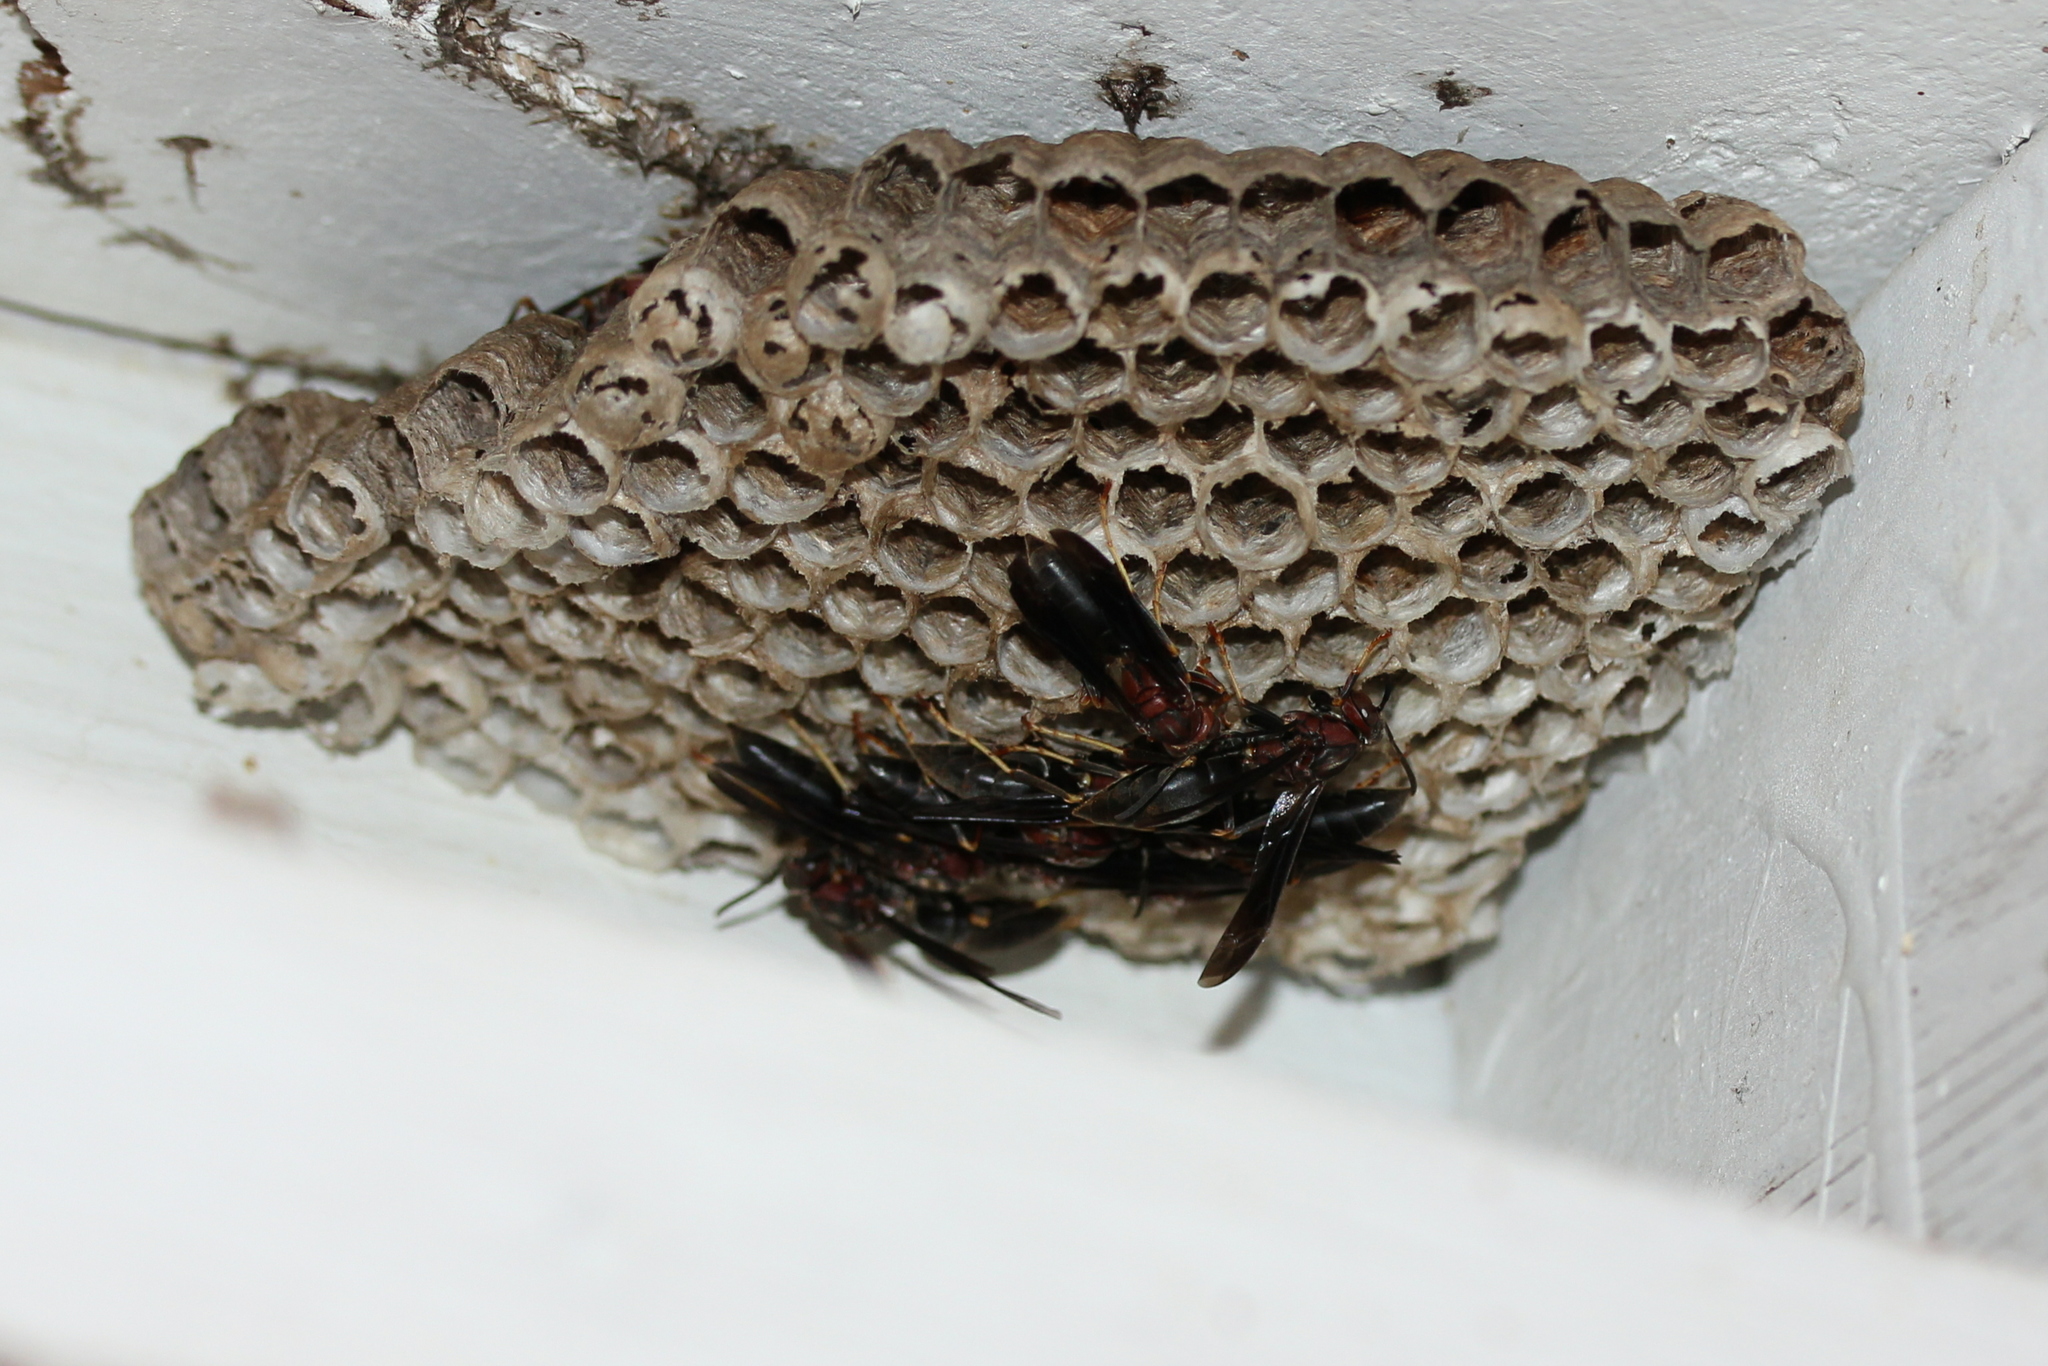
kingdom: Animalia
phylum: Arthropoda
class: Insecta
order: Hymenoptera
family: Eumenidae
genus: Polistes
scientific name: Polistes metricus
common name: Metric paper wasp
